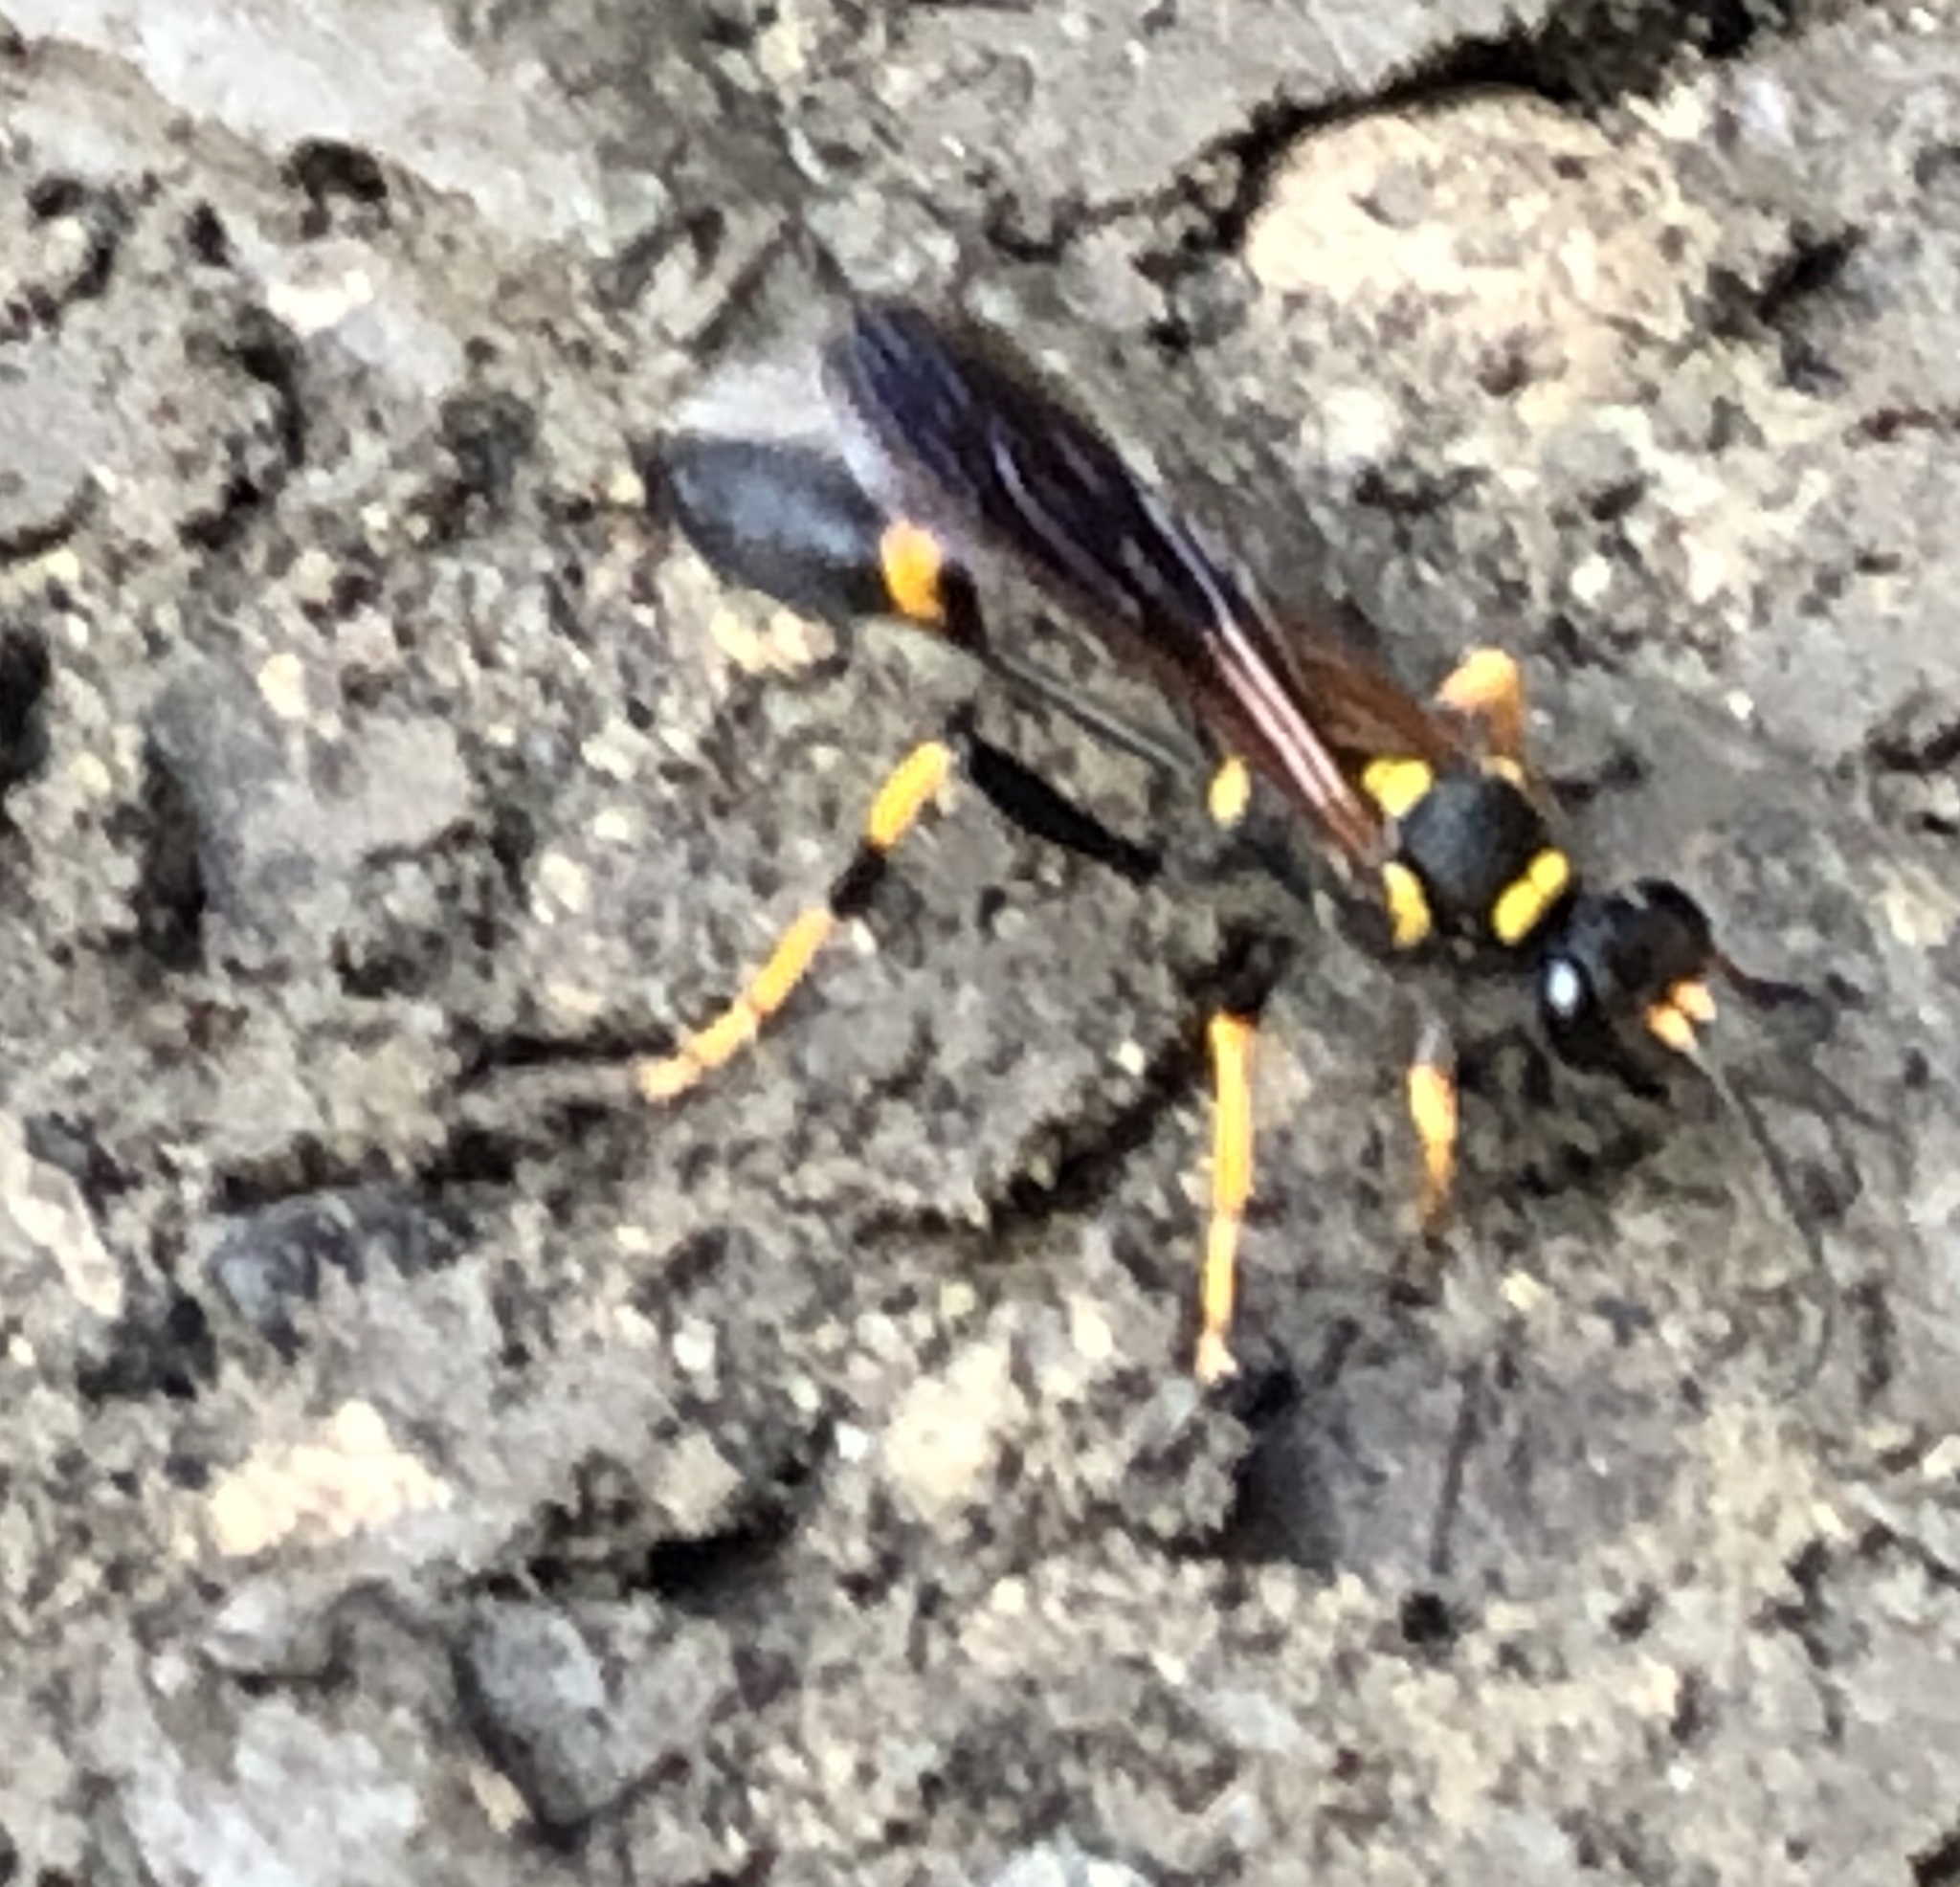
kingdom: Animalia
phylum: Arthropoda
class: Insecta
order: Hymenoptera
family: Sphecidae
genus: Sceliphron
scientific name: Sceliphron caementarium
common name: Mud dauber
